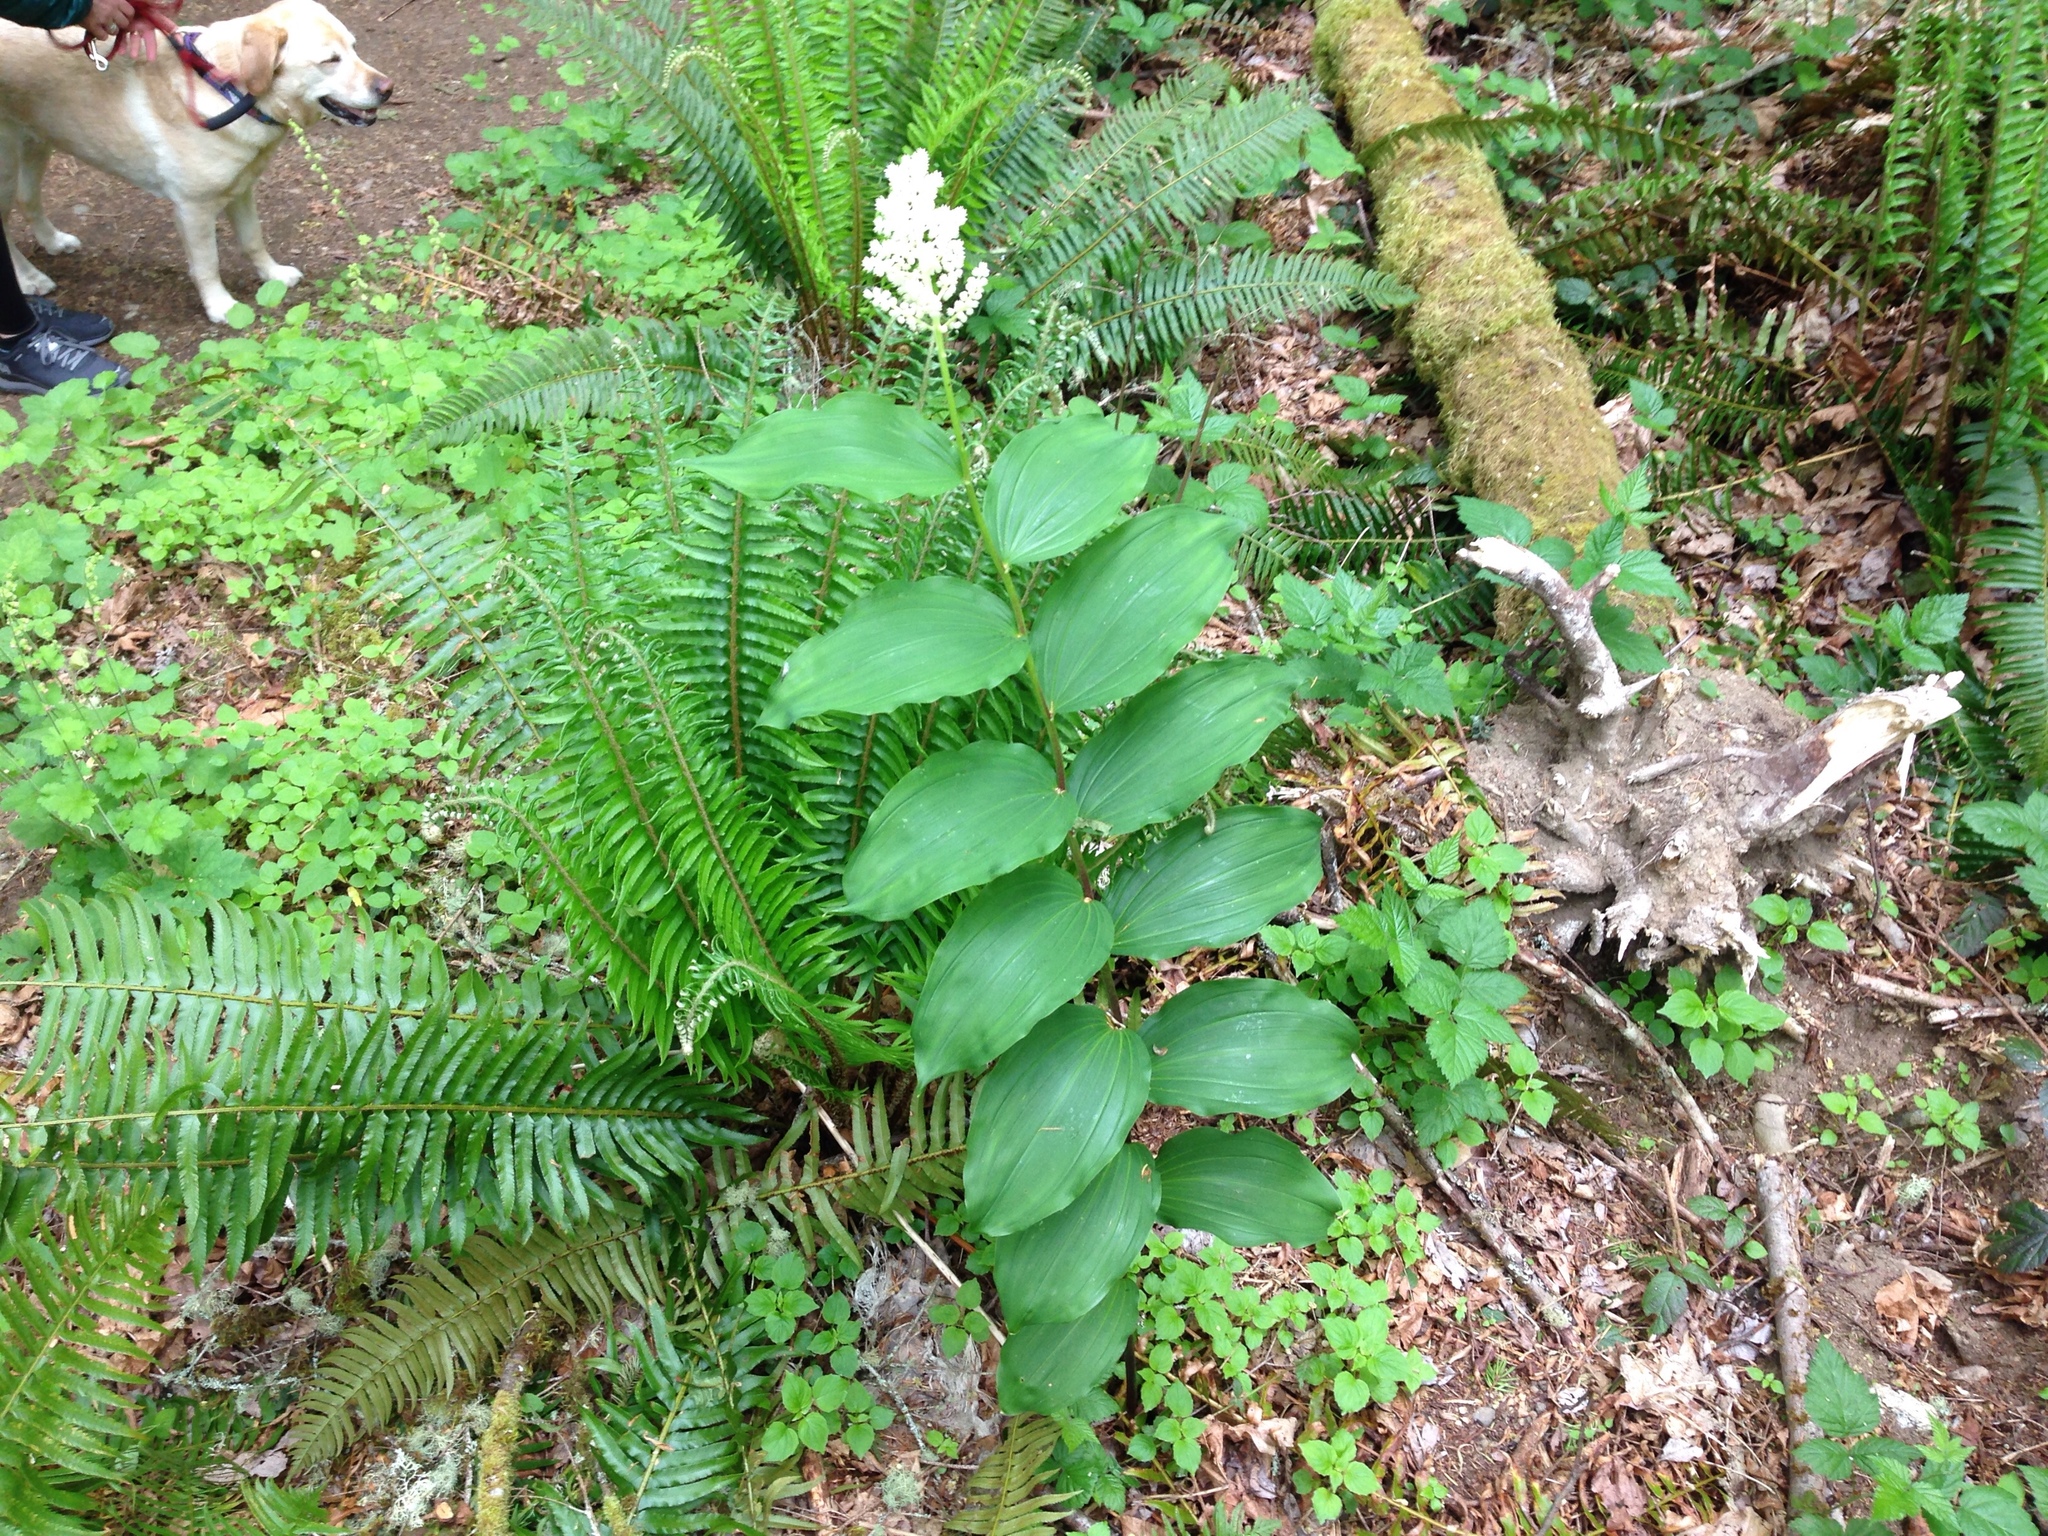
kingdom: Plantae
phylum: Tracheophyta
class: Liliopsida
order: Asparagales
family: Asparagaceae
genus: Maianthemum
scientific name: Maianthemum racemosum
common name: False spikenard
